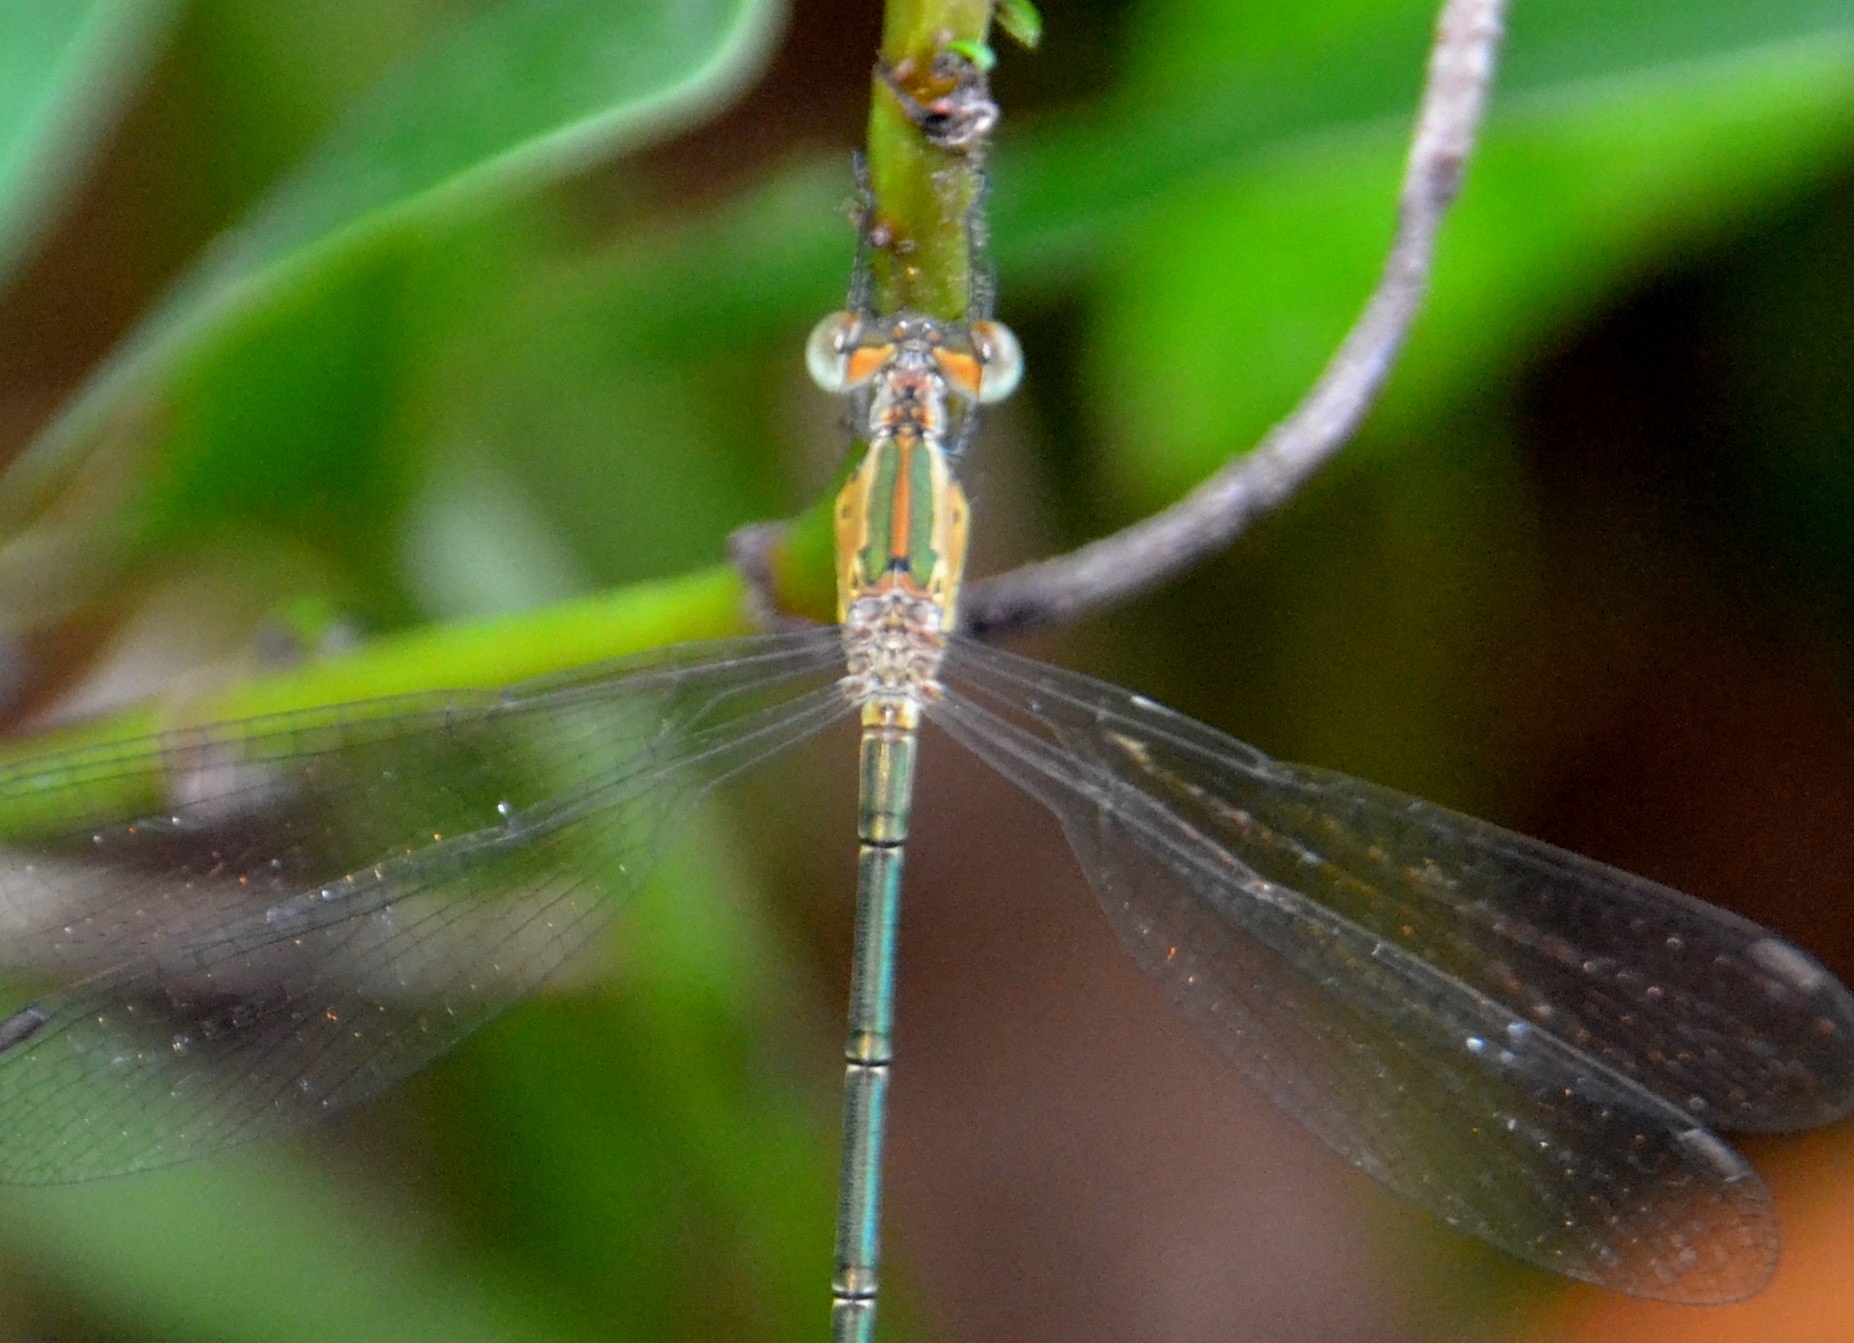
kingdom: Animalia
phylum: Arthropoda
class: Insecta
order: Odonata
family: Lestidae
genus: Lestes
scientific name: Lestes elatus
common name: Emerald spreadwing
